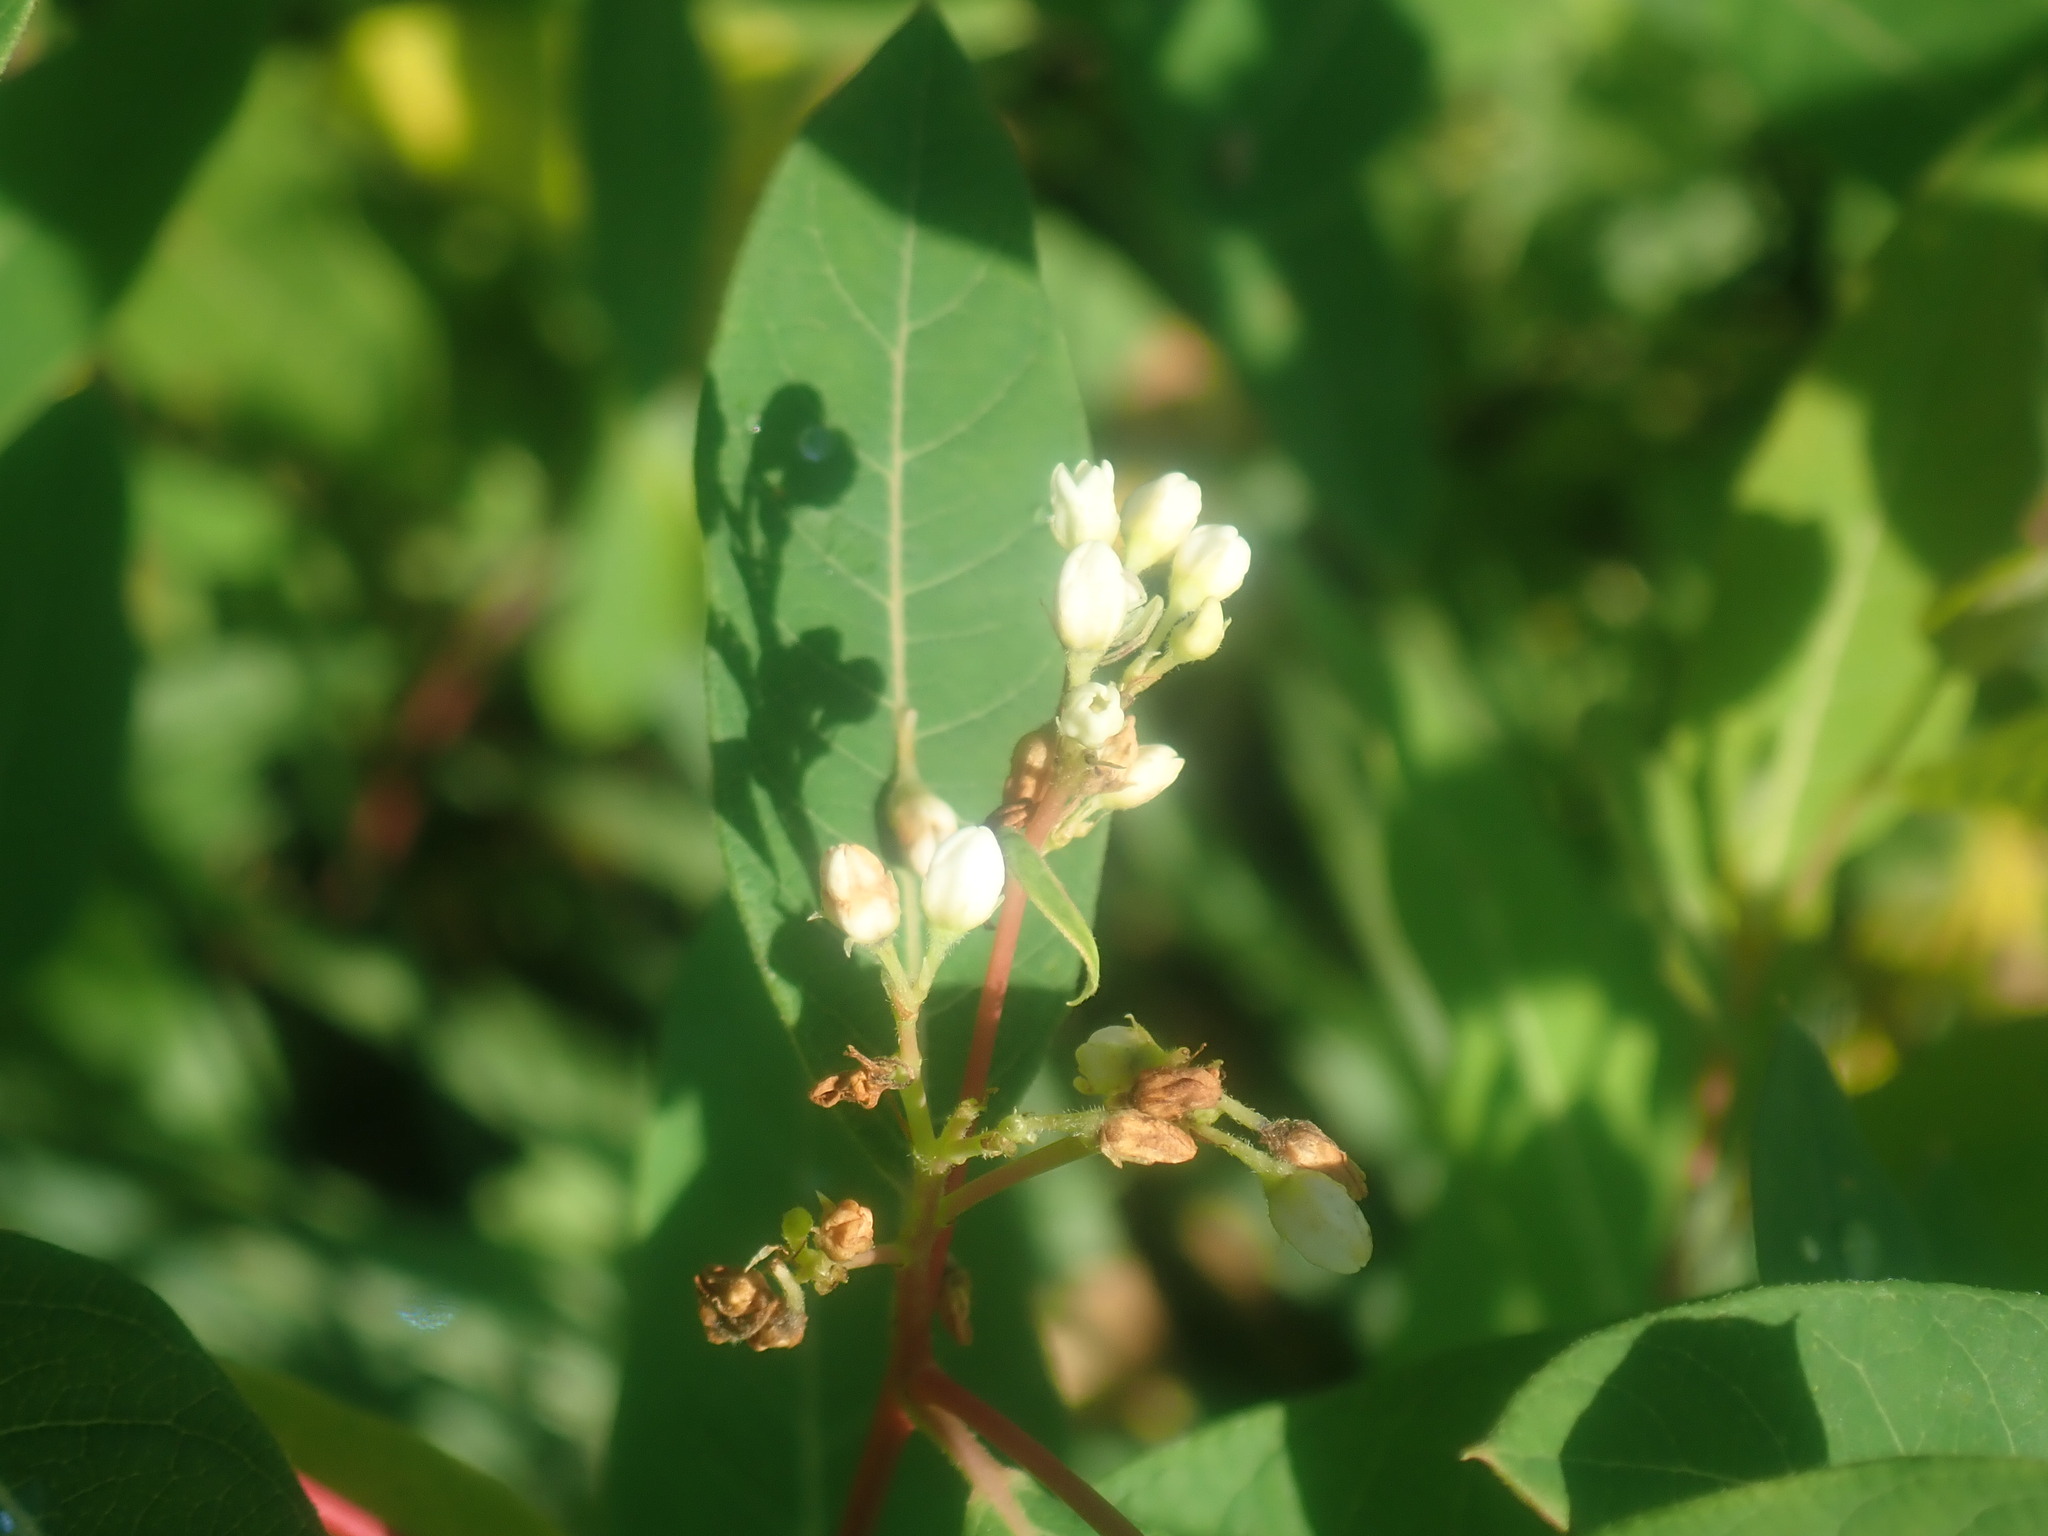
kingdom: Plantae
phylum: Tracheophyta
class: Magnoliopsida
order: Gentianales
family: Apocynaceae
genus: Apocynum
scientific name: Apocynum cannabinum
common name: Hemp dogbane
